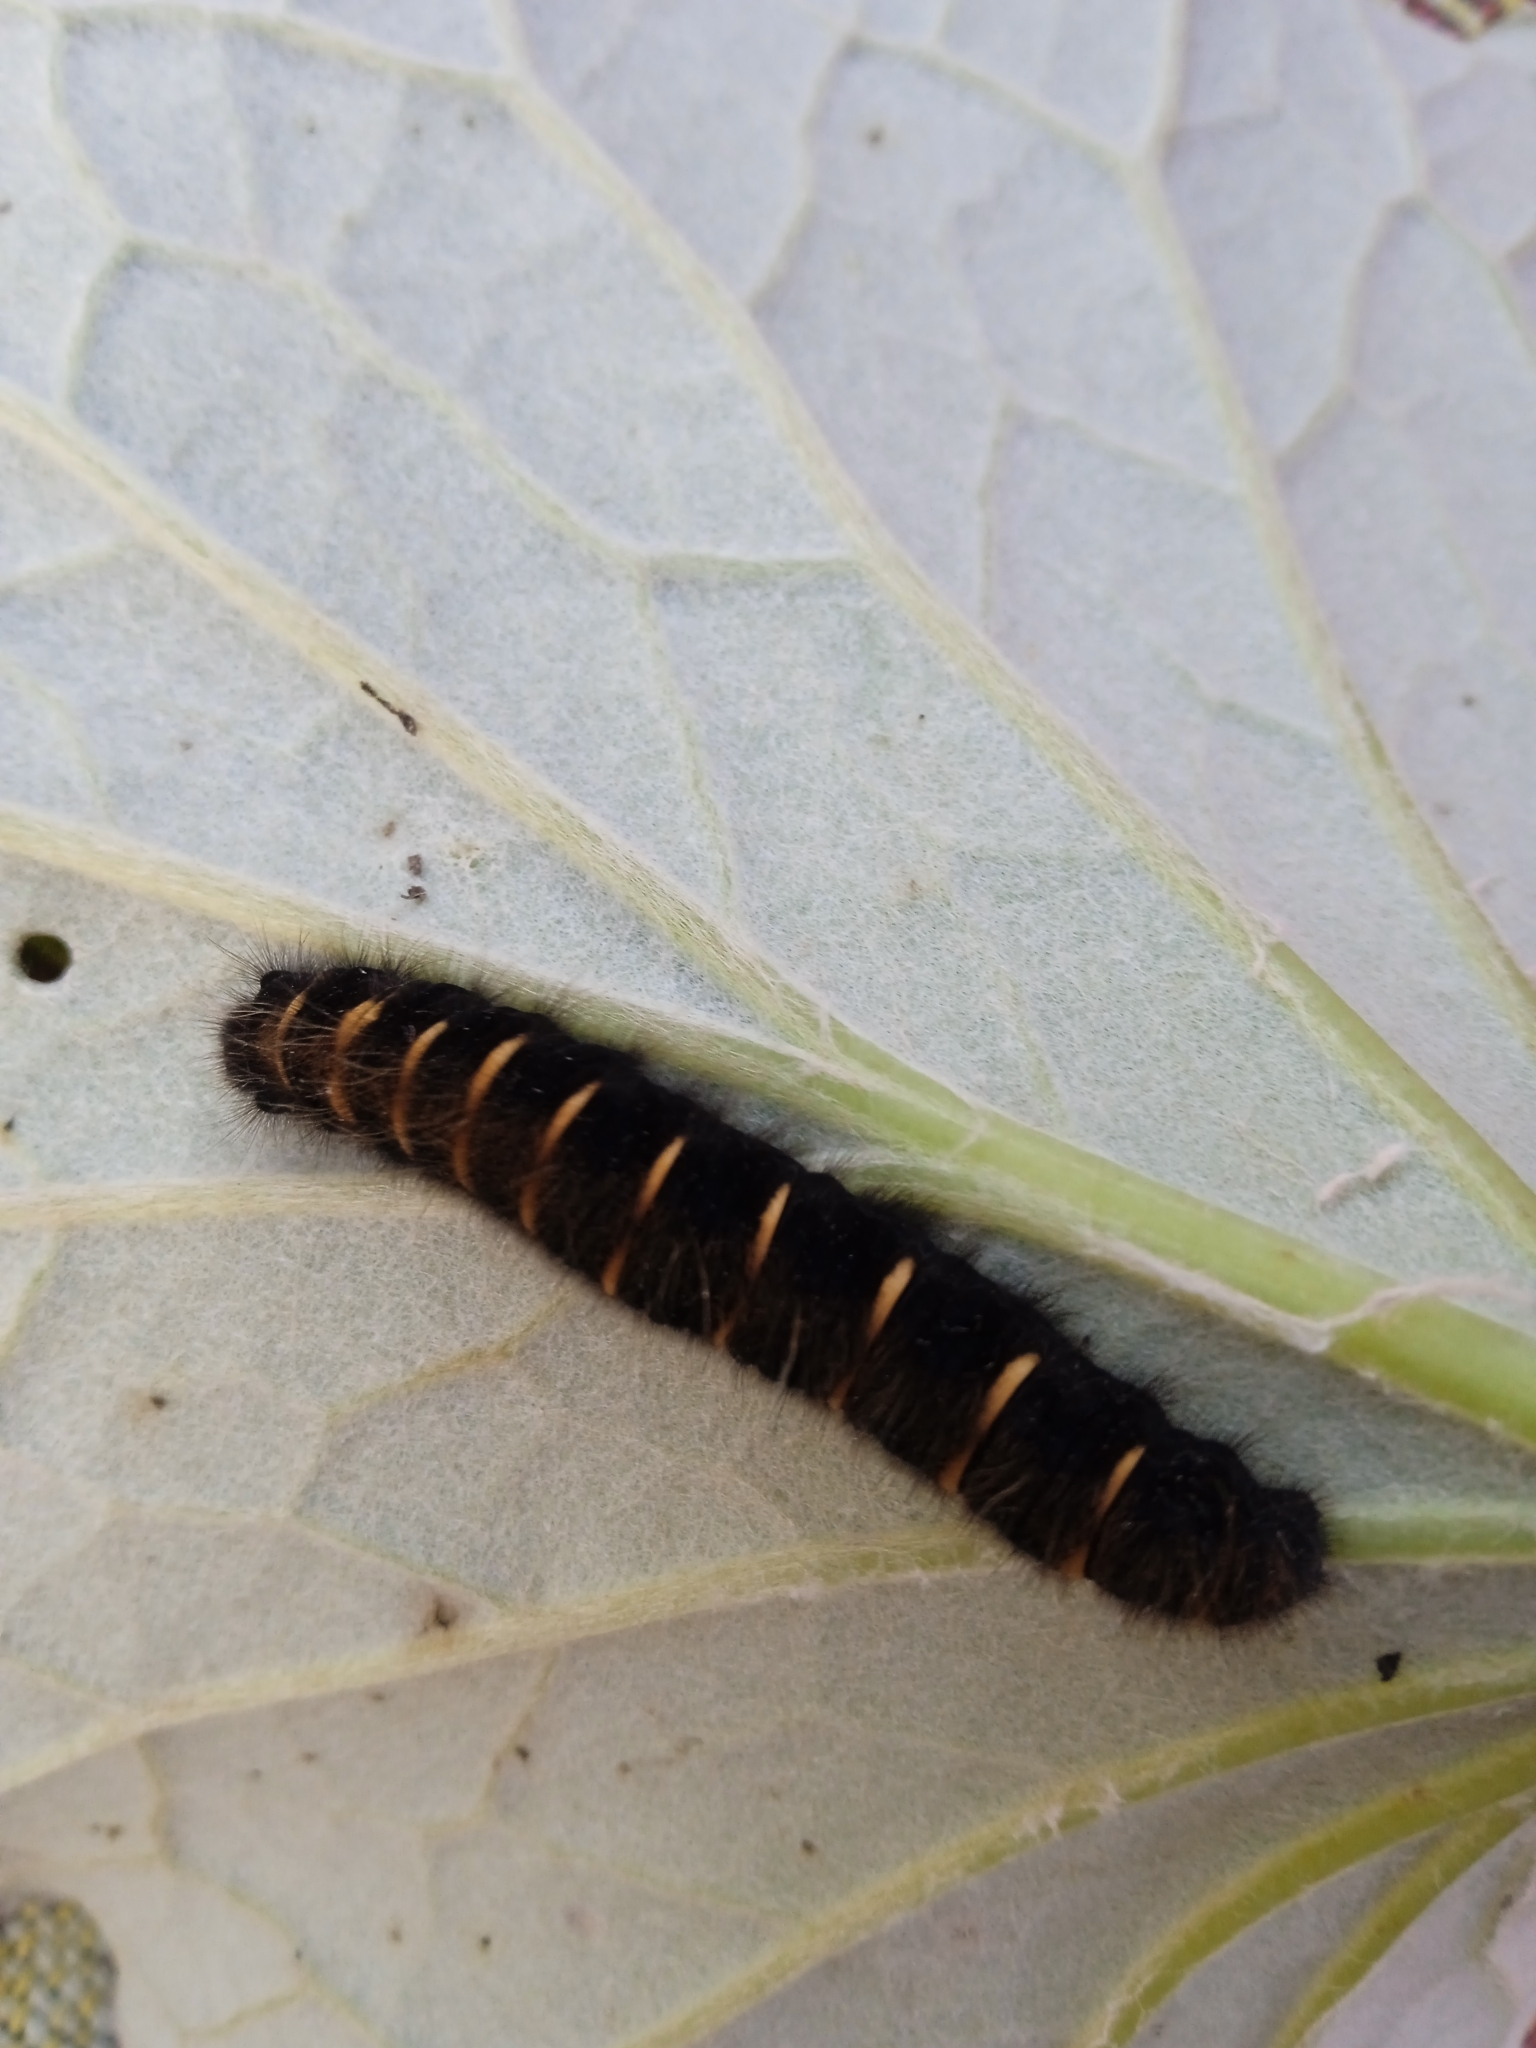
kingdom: Animalia
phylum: Arthropoda
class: Insecta
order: Lepidoptera
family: Lasiocampidae
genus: Macrothylacia
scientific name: Macrothylacia rubi
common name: Fox moth
